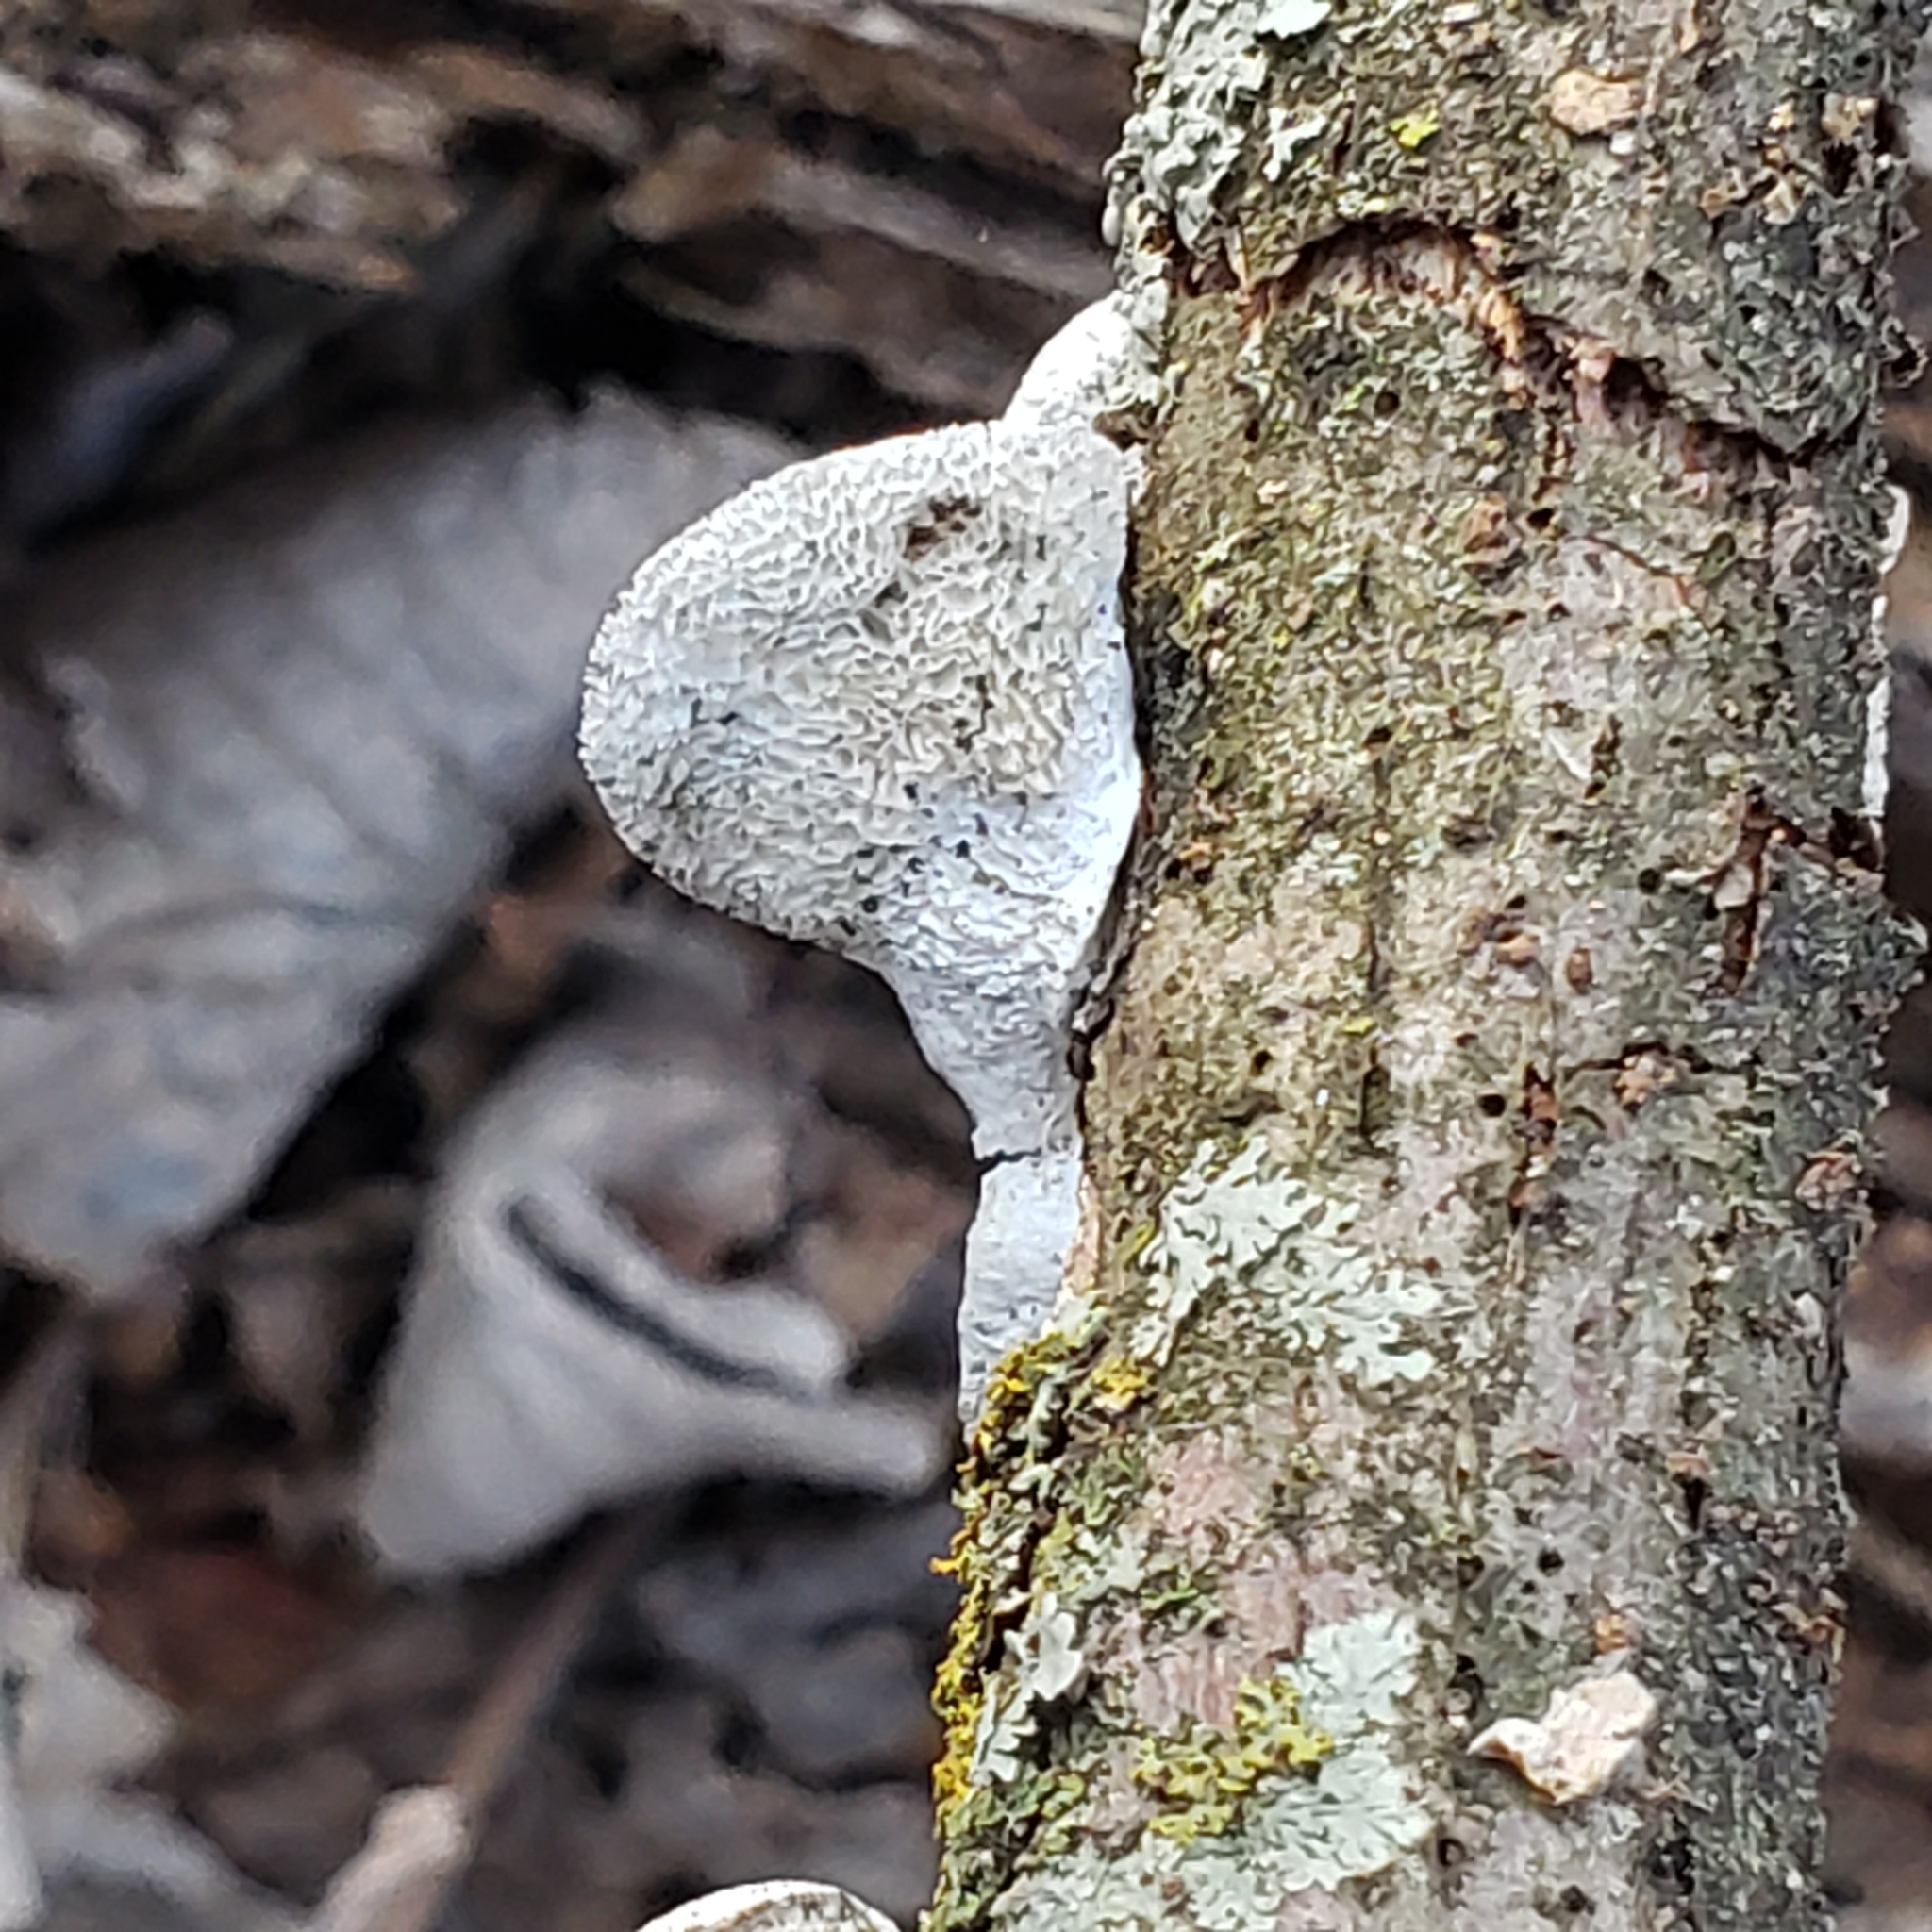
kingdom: Fungi
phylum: Basidiomycota
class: Agaricomycetes
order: Polyporales
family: Polyporaceae
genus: Poronidulus
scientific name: Poronidulus conchifer
